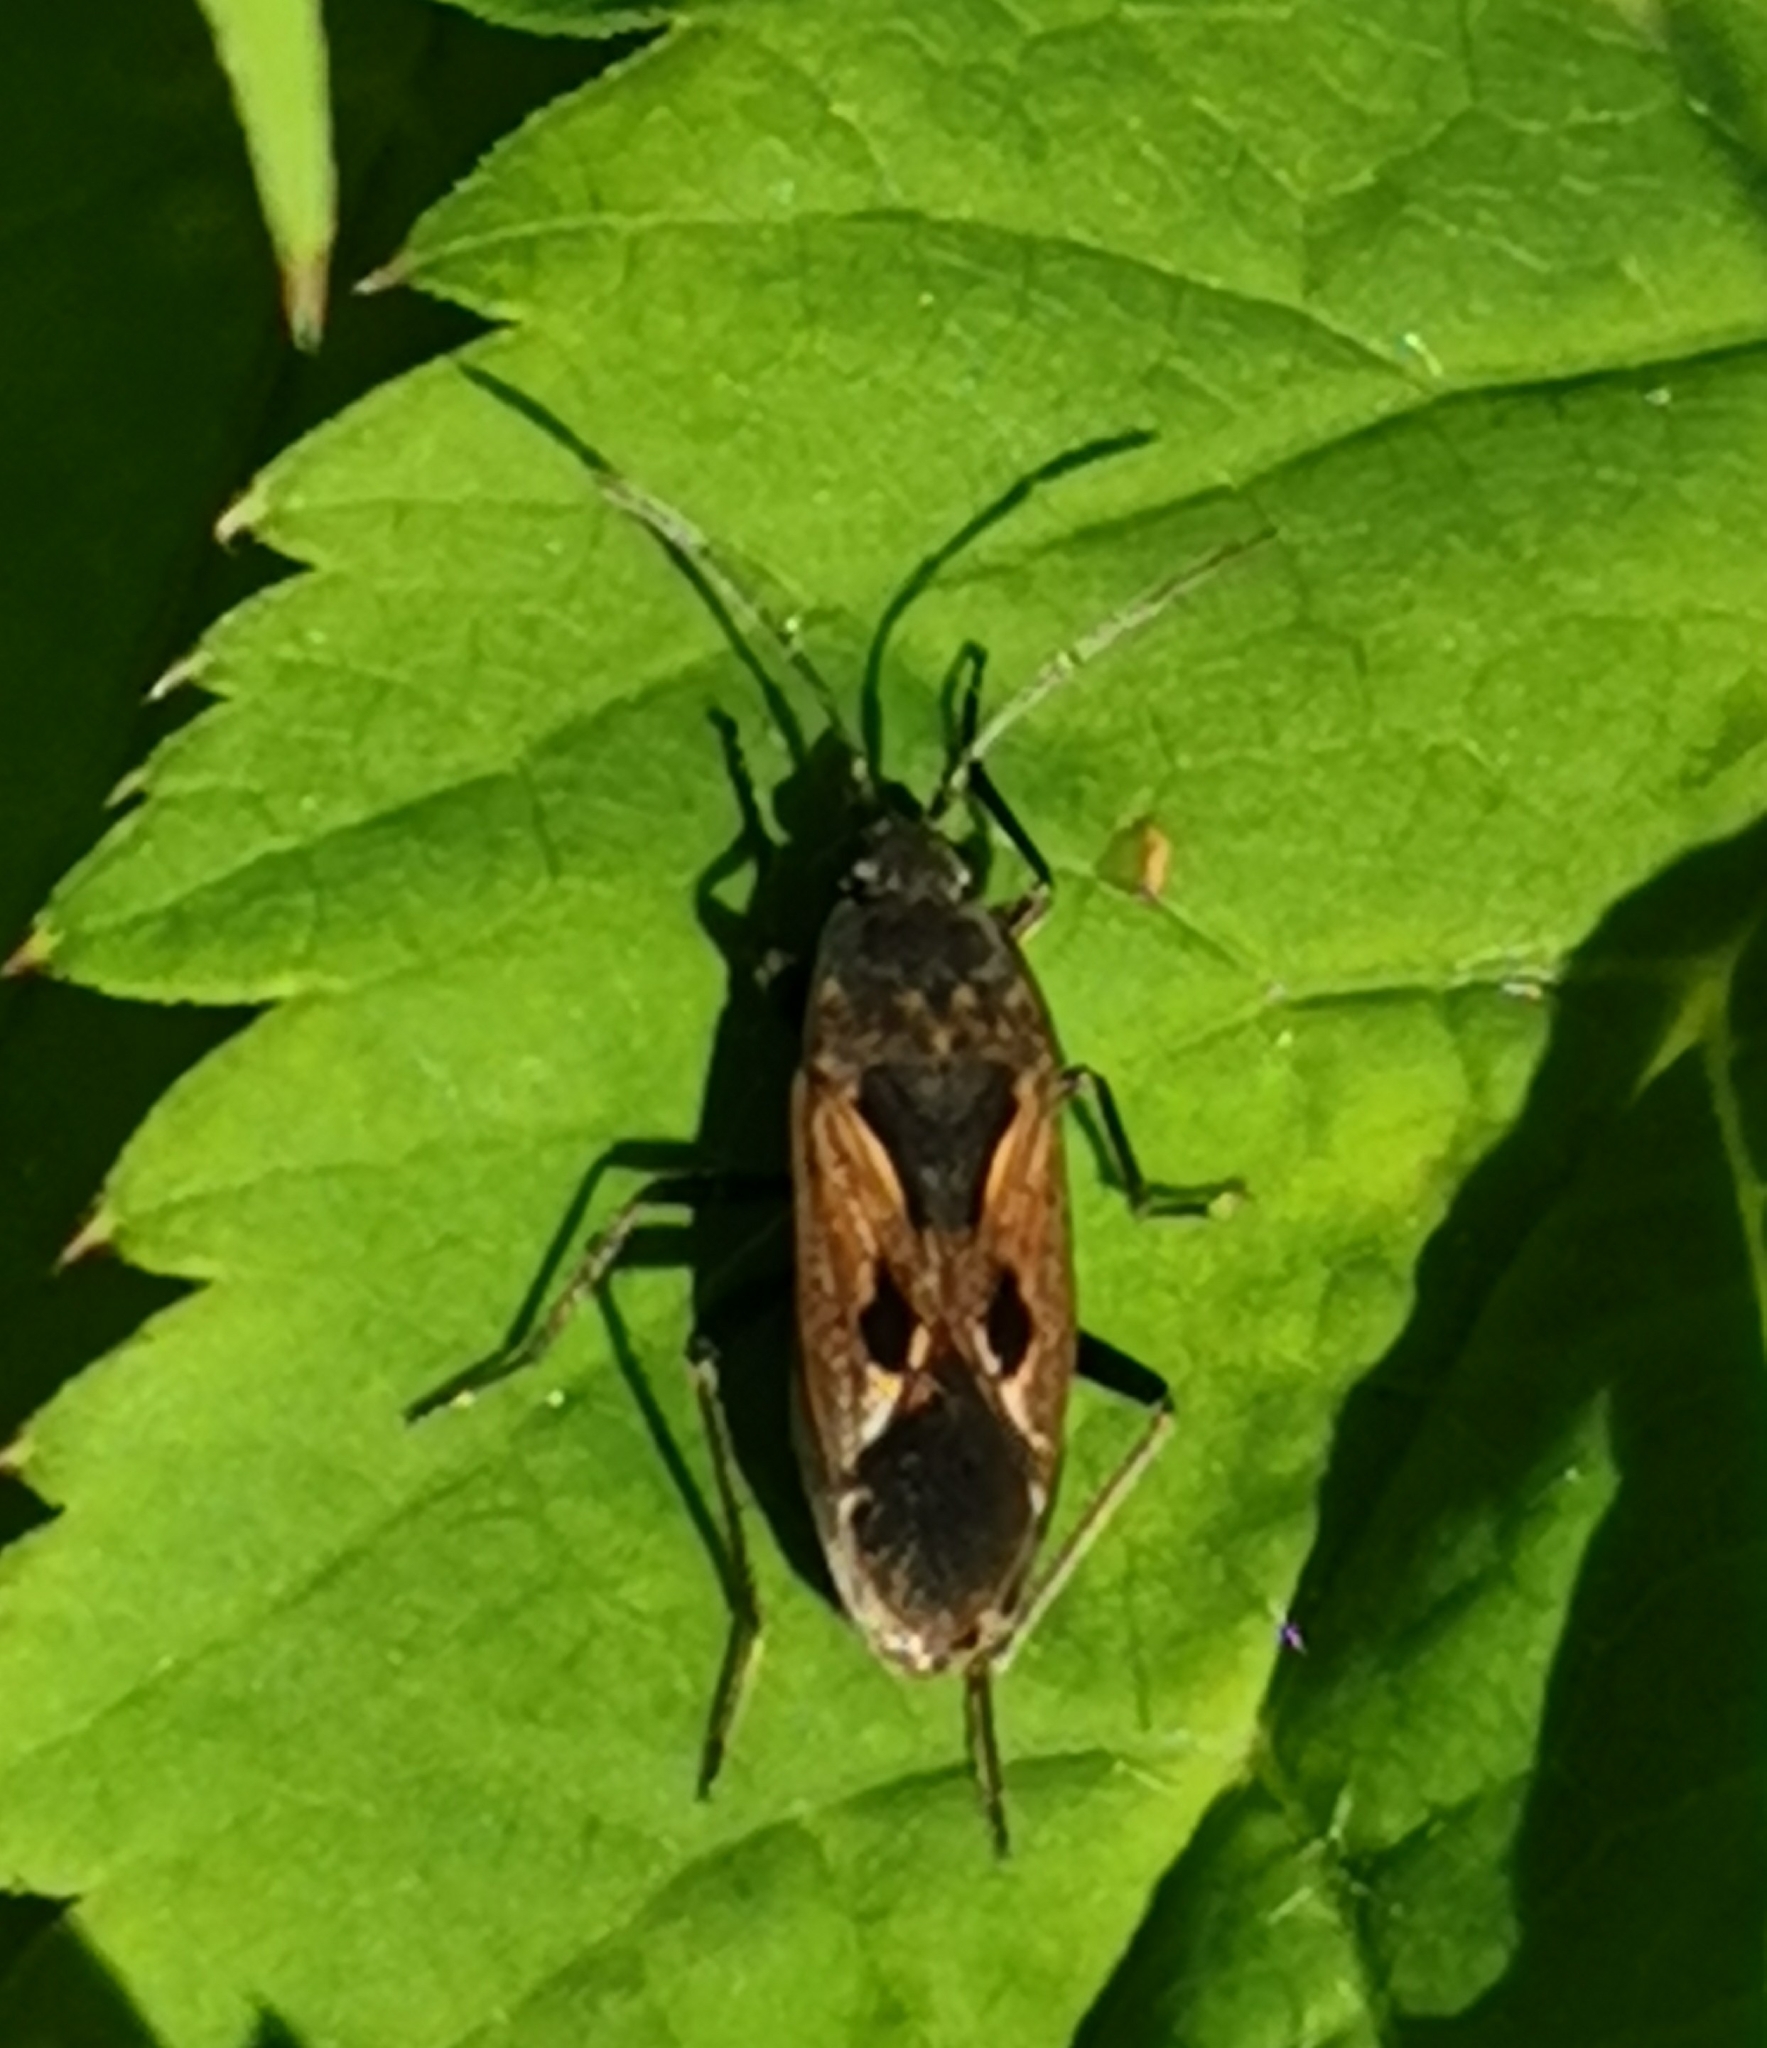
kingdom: Animalia
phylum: Arthropoda
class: Insecta
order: Hemiptera
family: Rhyparochromidae
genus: Rhyparochromus
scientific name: Rhyparochromus pini
